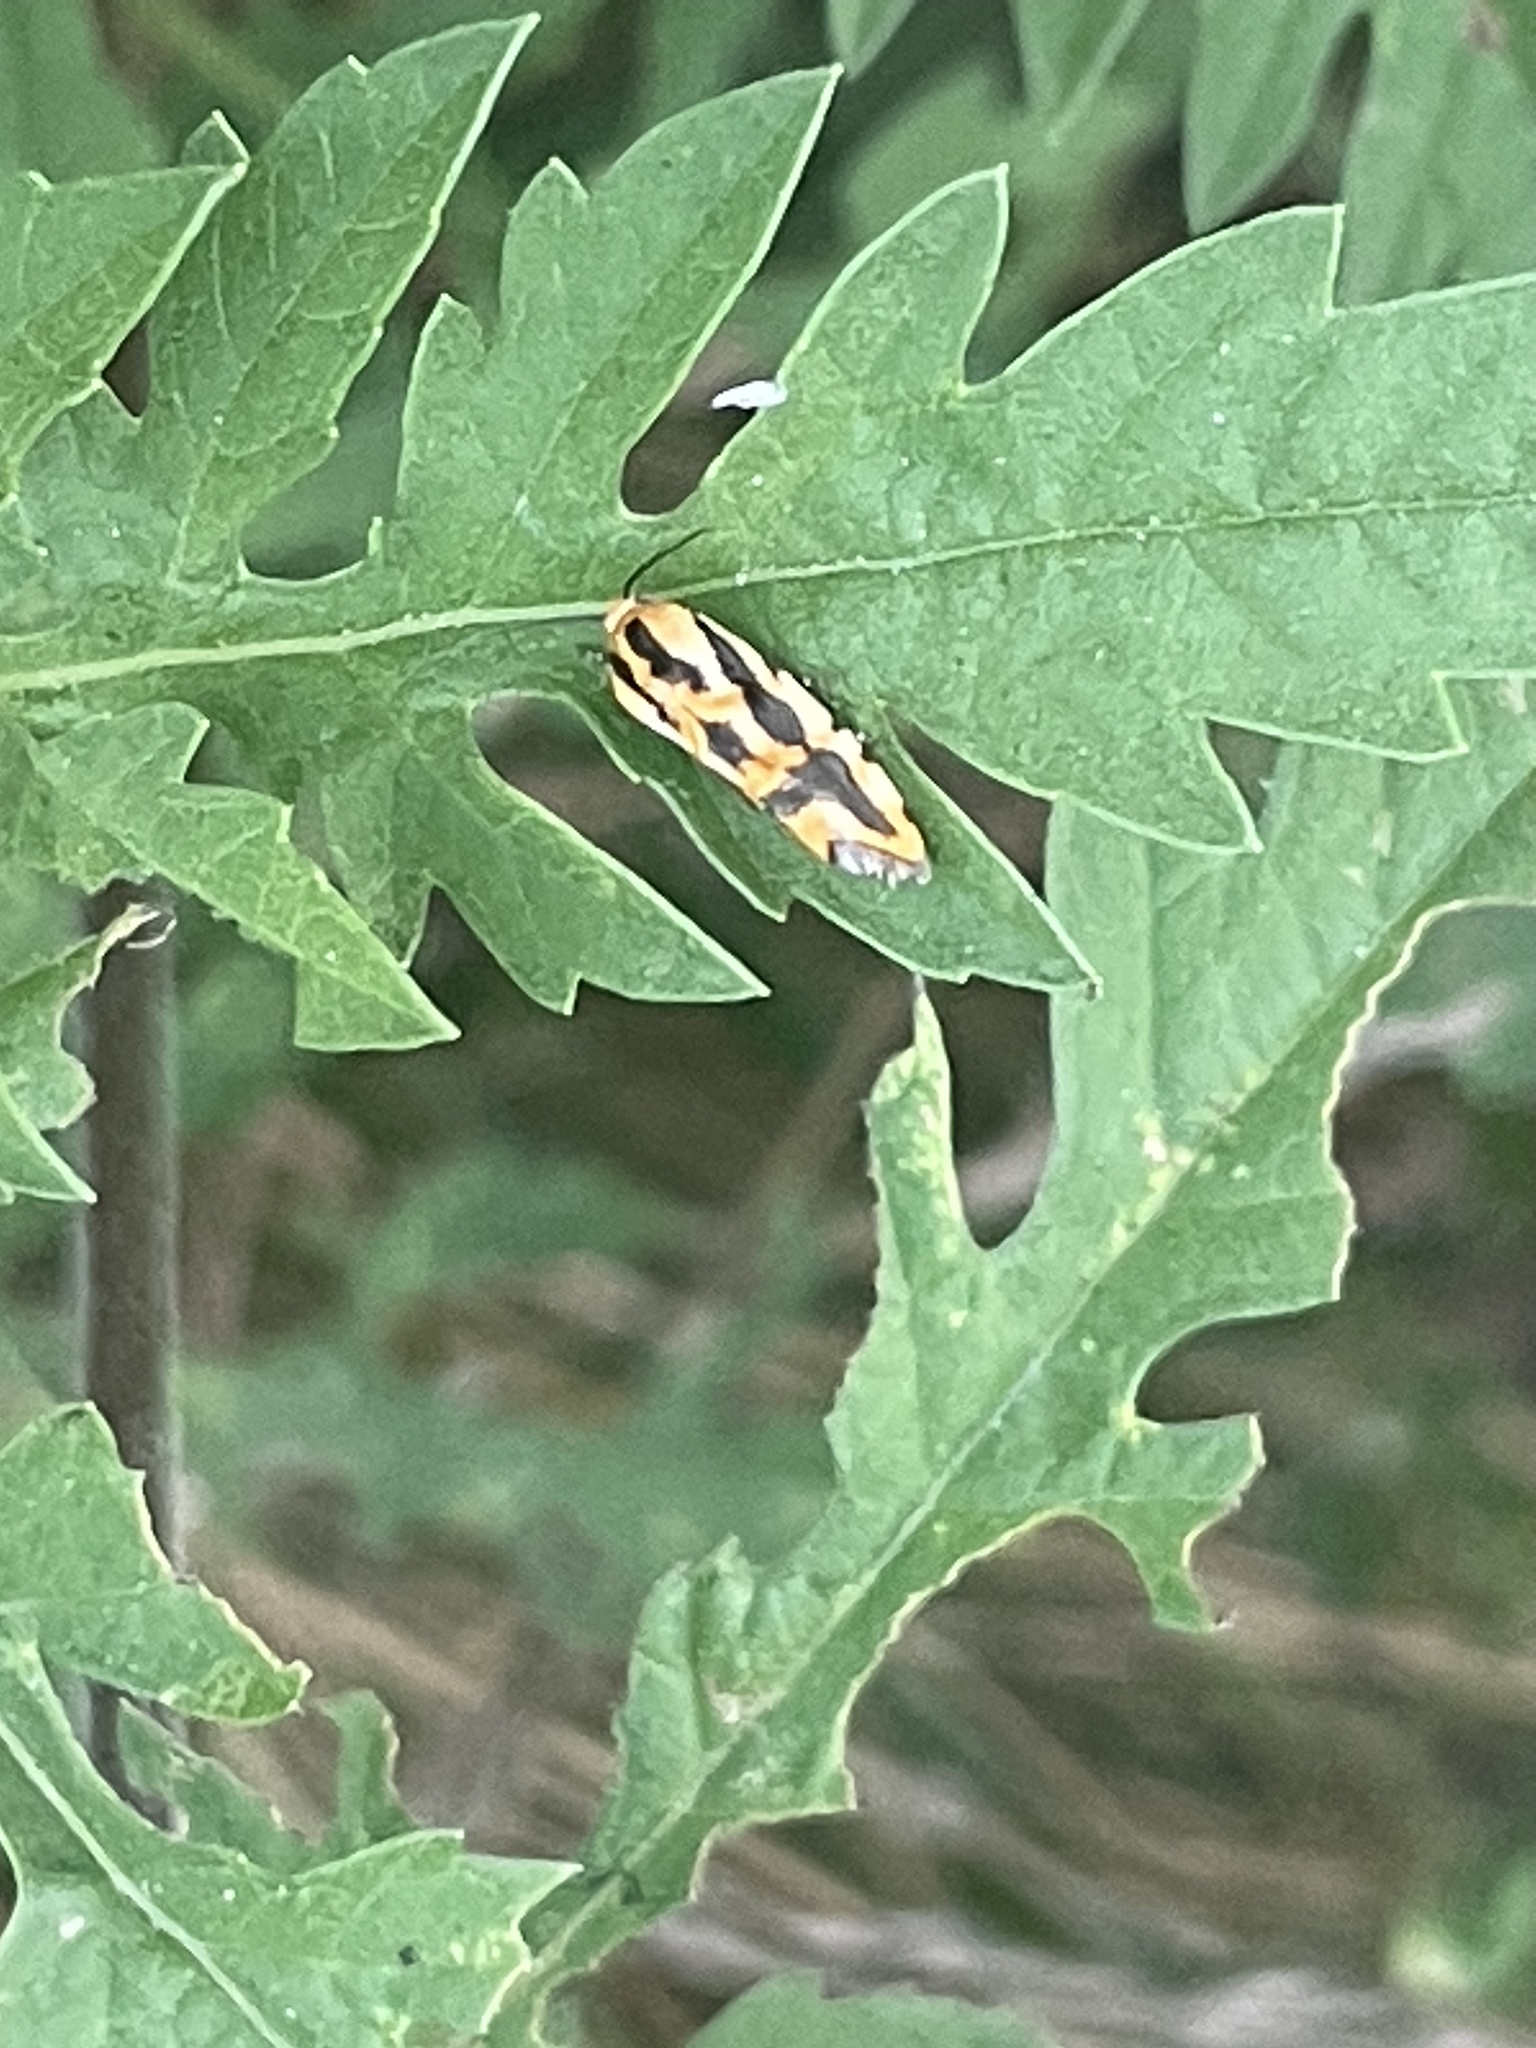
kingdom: Animalia
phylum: Arthropoda
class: Insecta
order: Lepidoptera
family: Noctuidae
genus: Acontia
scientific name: Acontia leo
